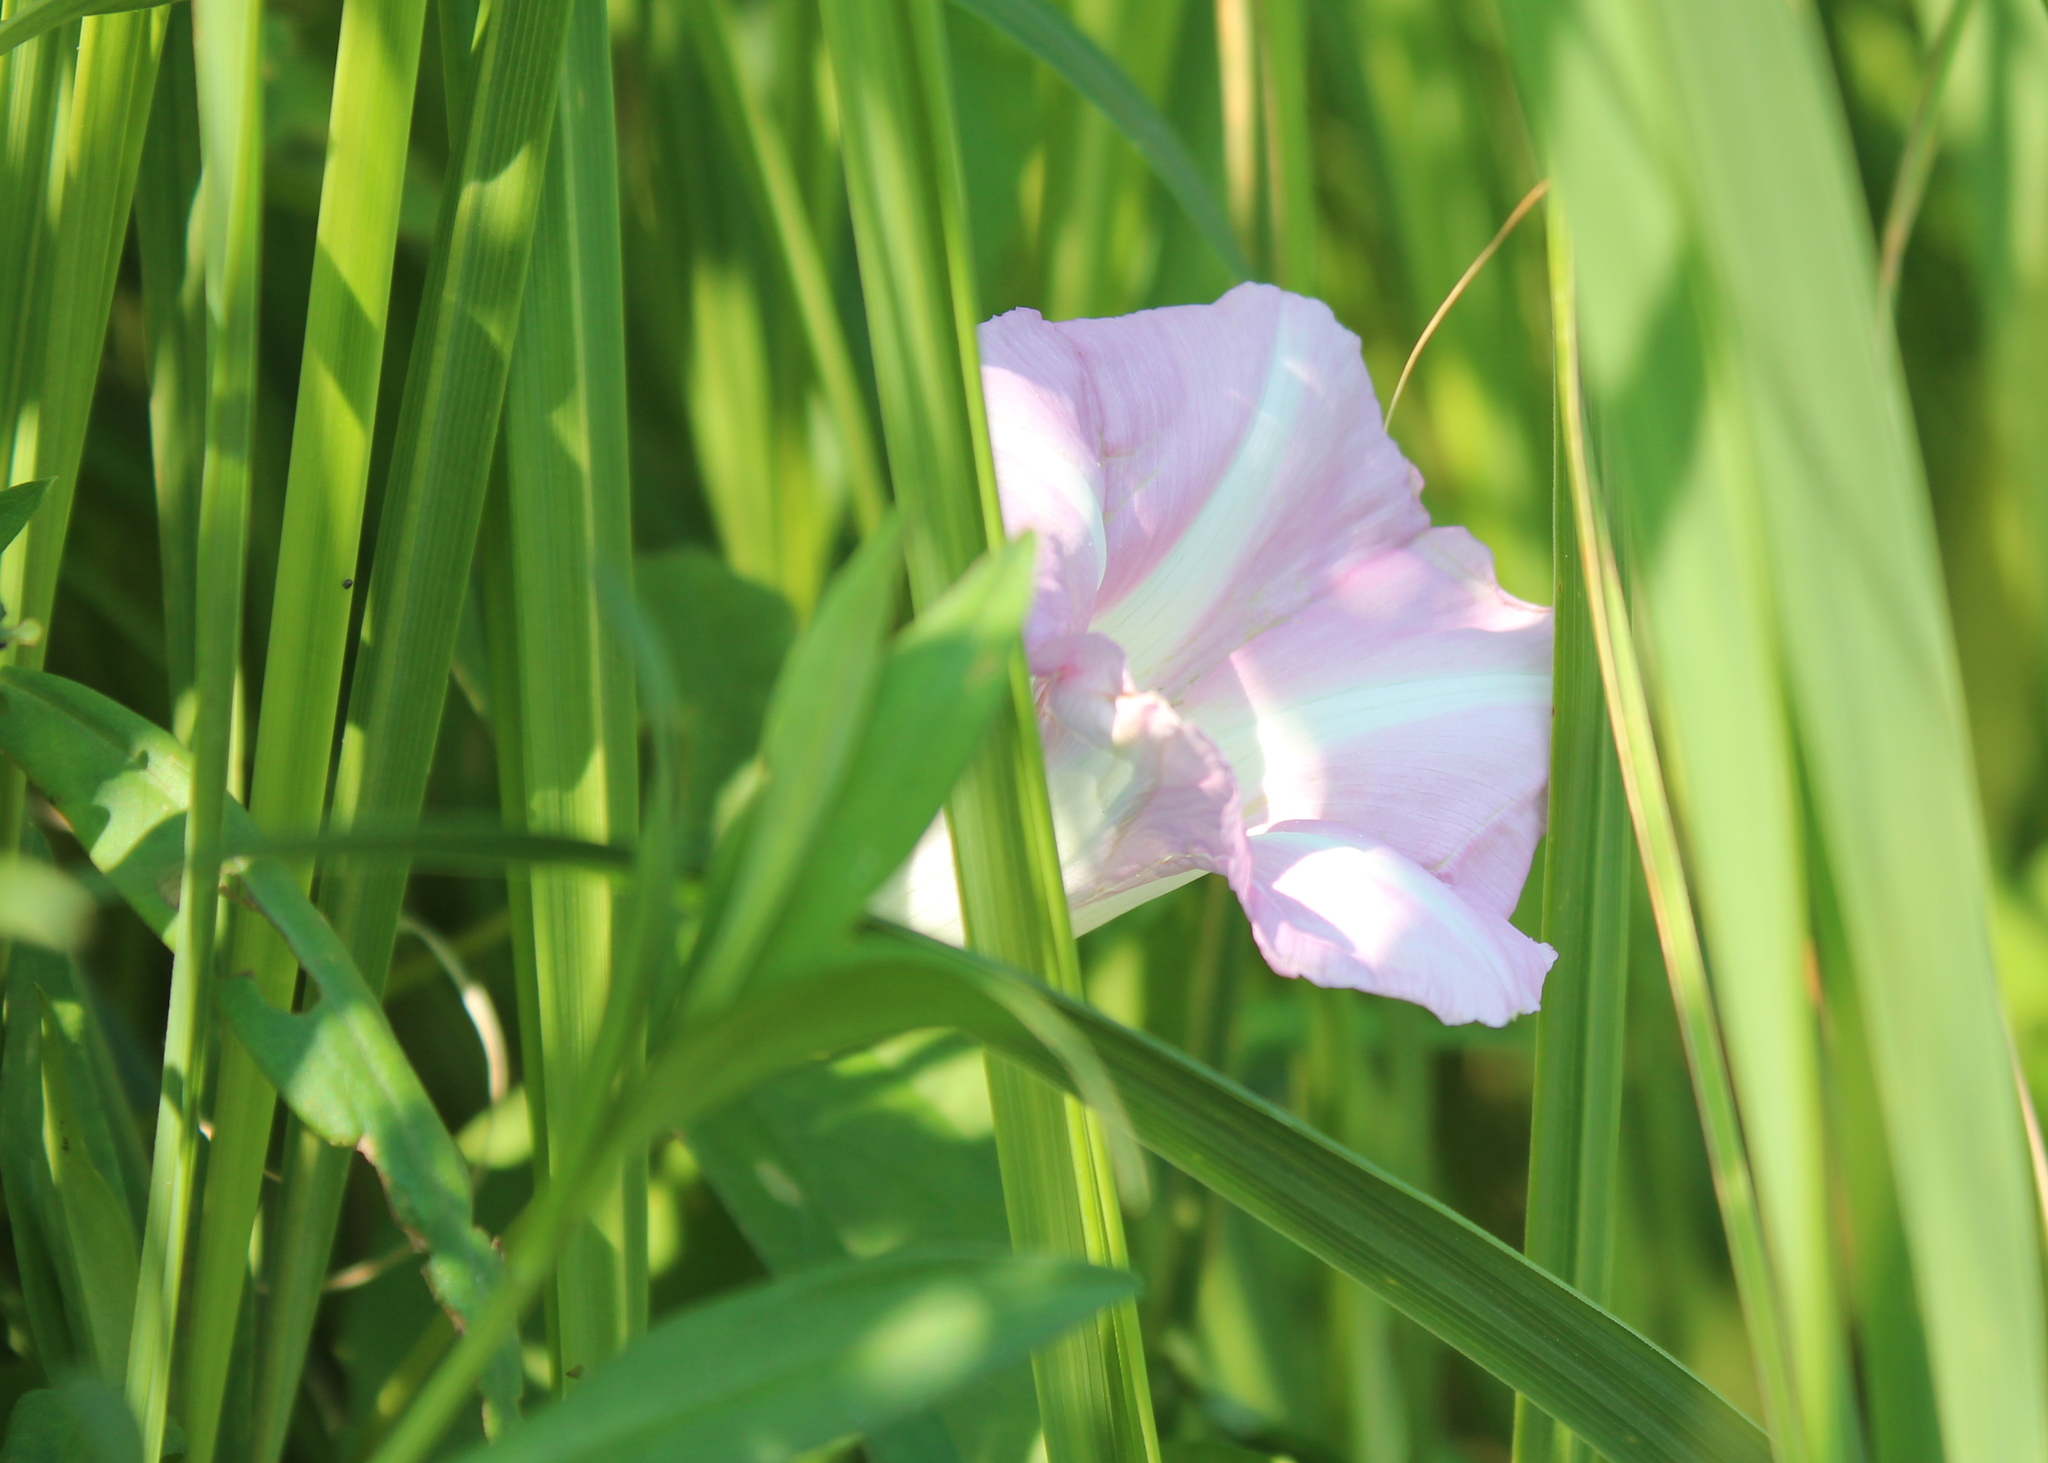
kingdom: Plantae
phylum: Tracheophyta
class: Magnoliopsida
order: Solanales
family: Convolvulaceae
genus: Calystegia
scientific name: Calystegia sepium
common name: Hedge bindweed
